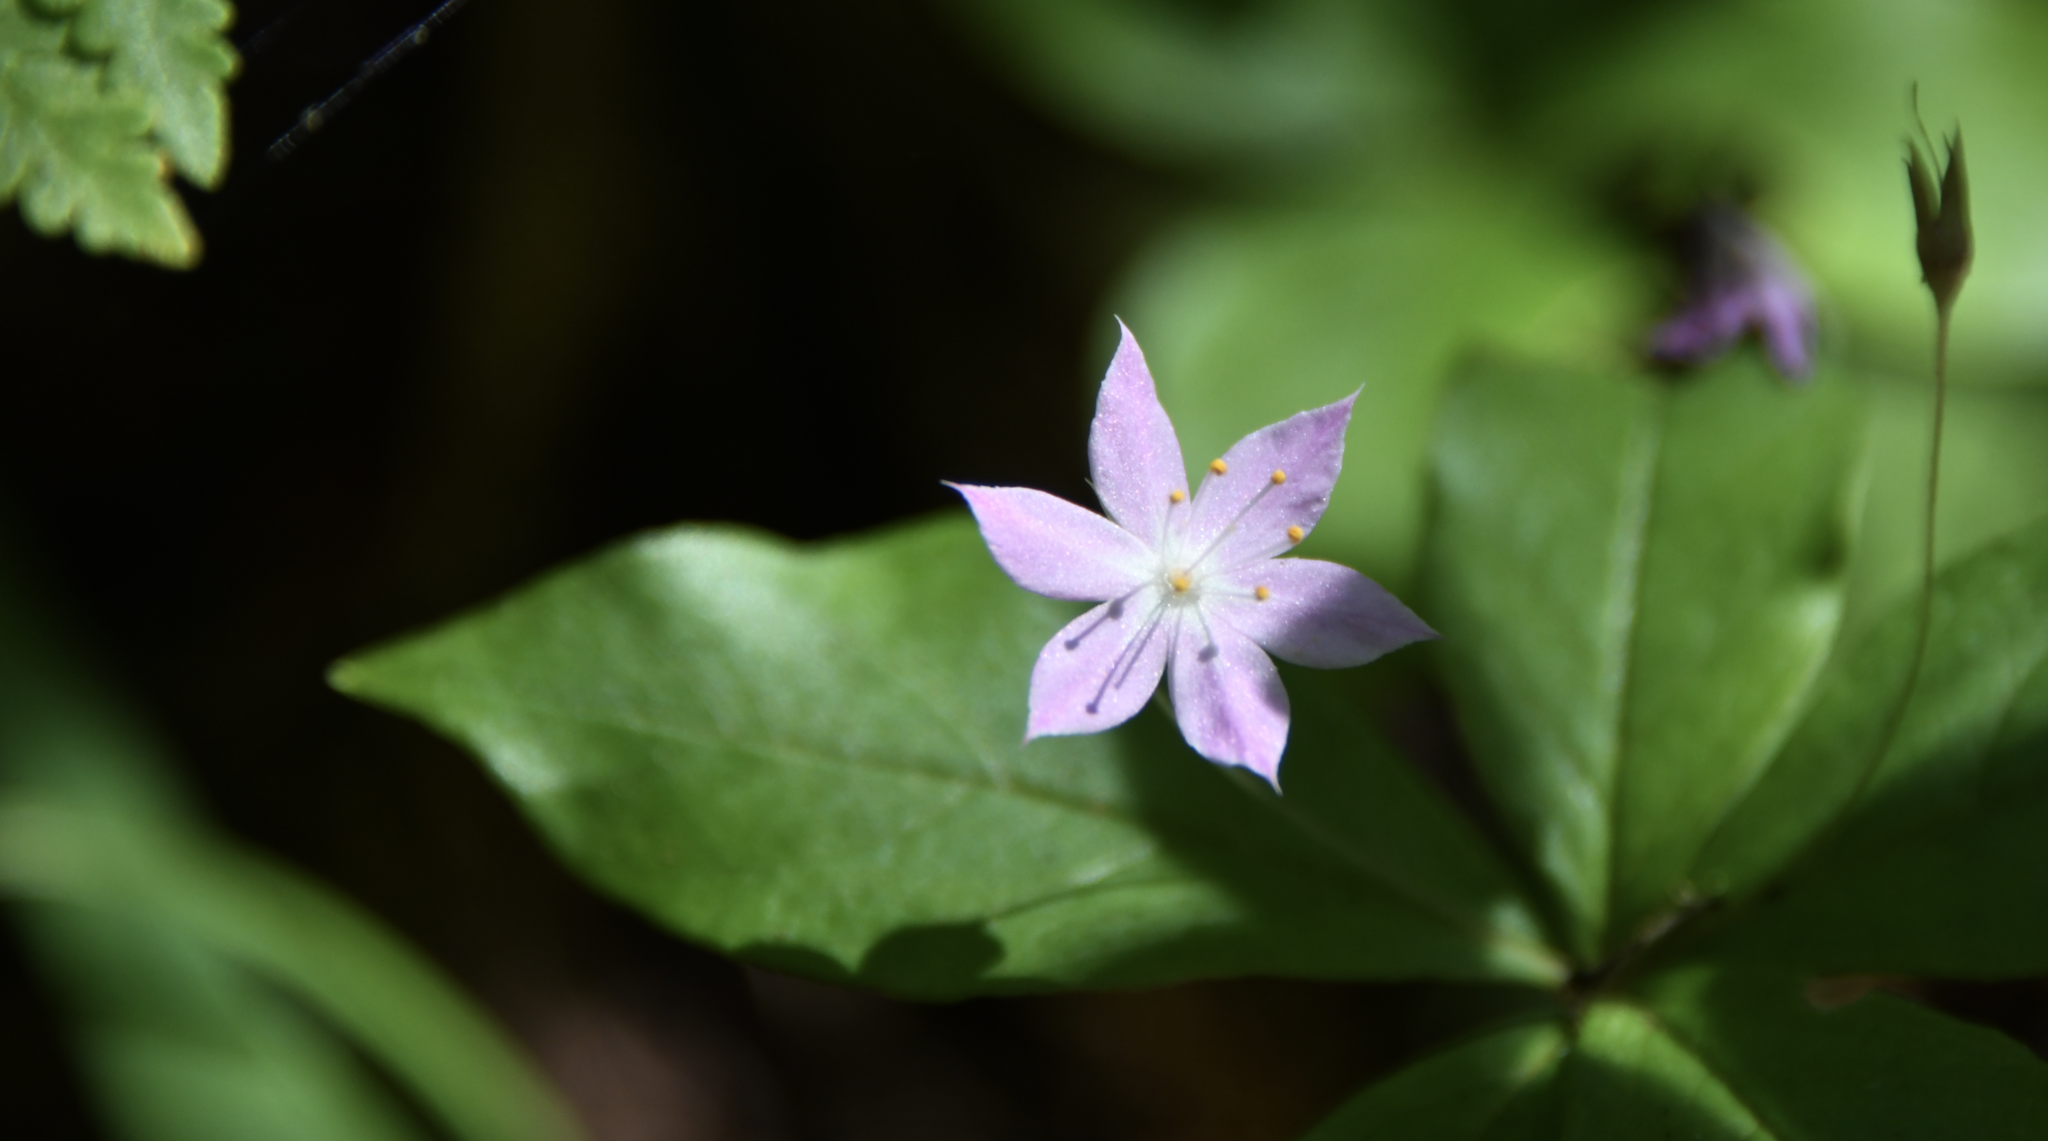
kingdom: Plantae
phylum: Tracheophyta
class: Magnoliopsida
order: Ericales
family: Primulaceae
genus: Lysimachia
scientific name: Lysimachia latifolia
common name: Pacific starflower
